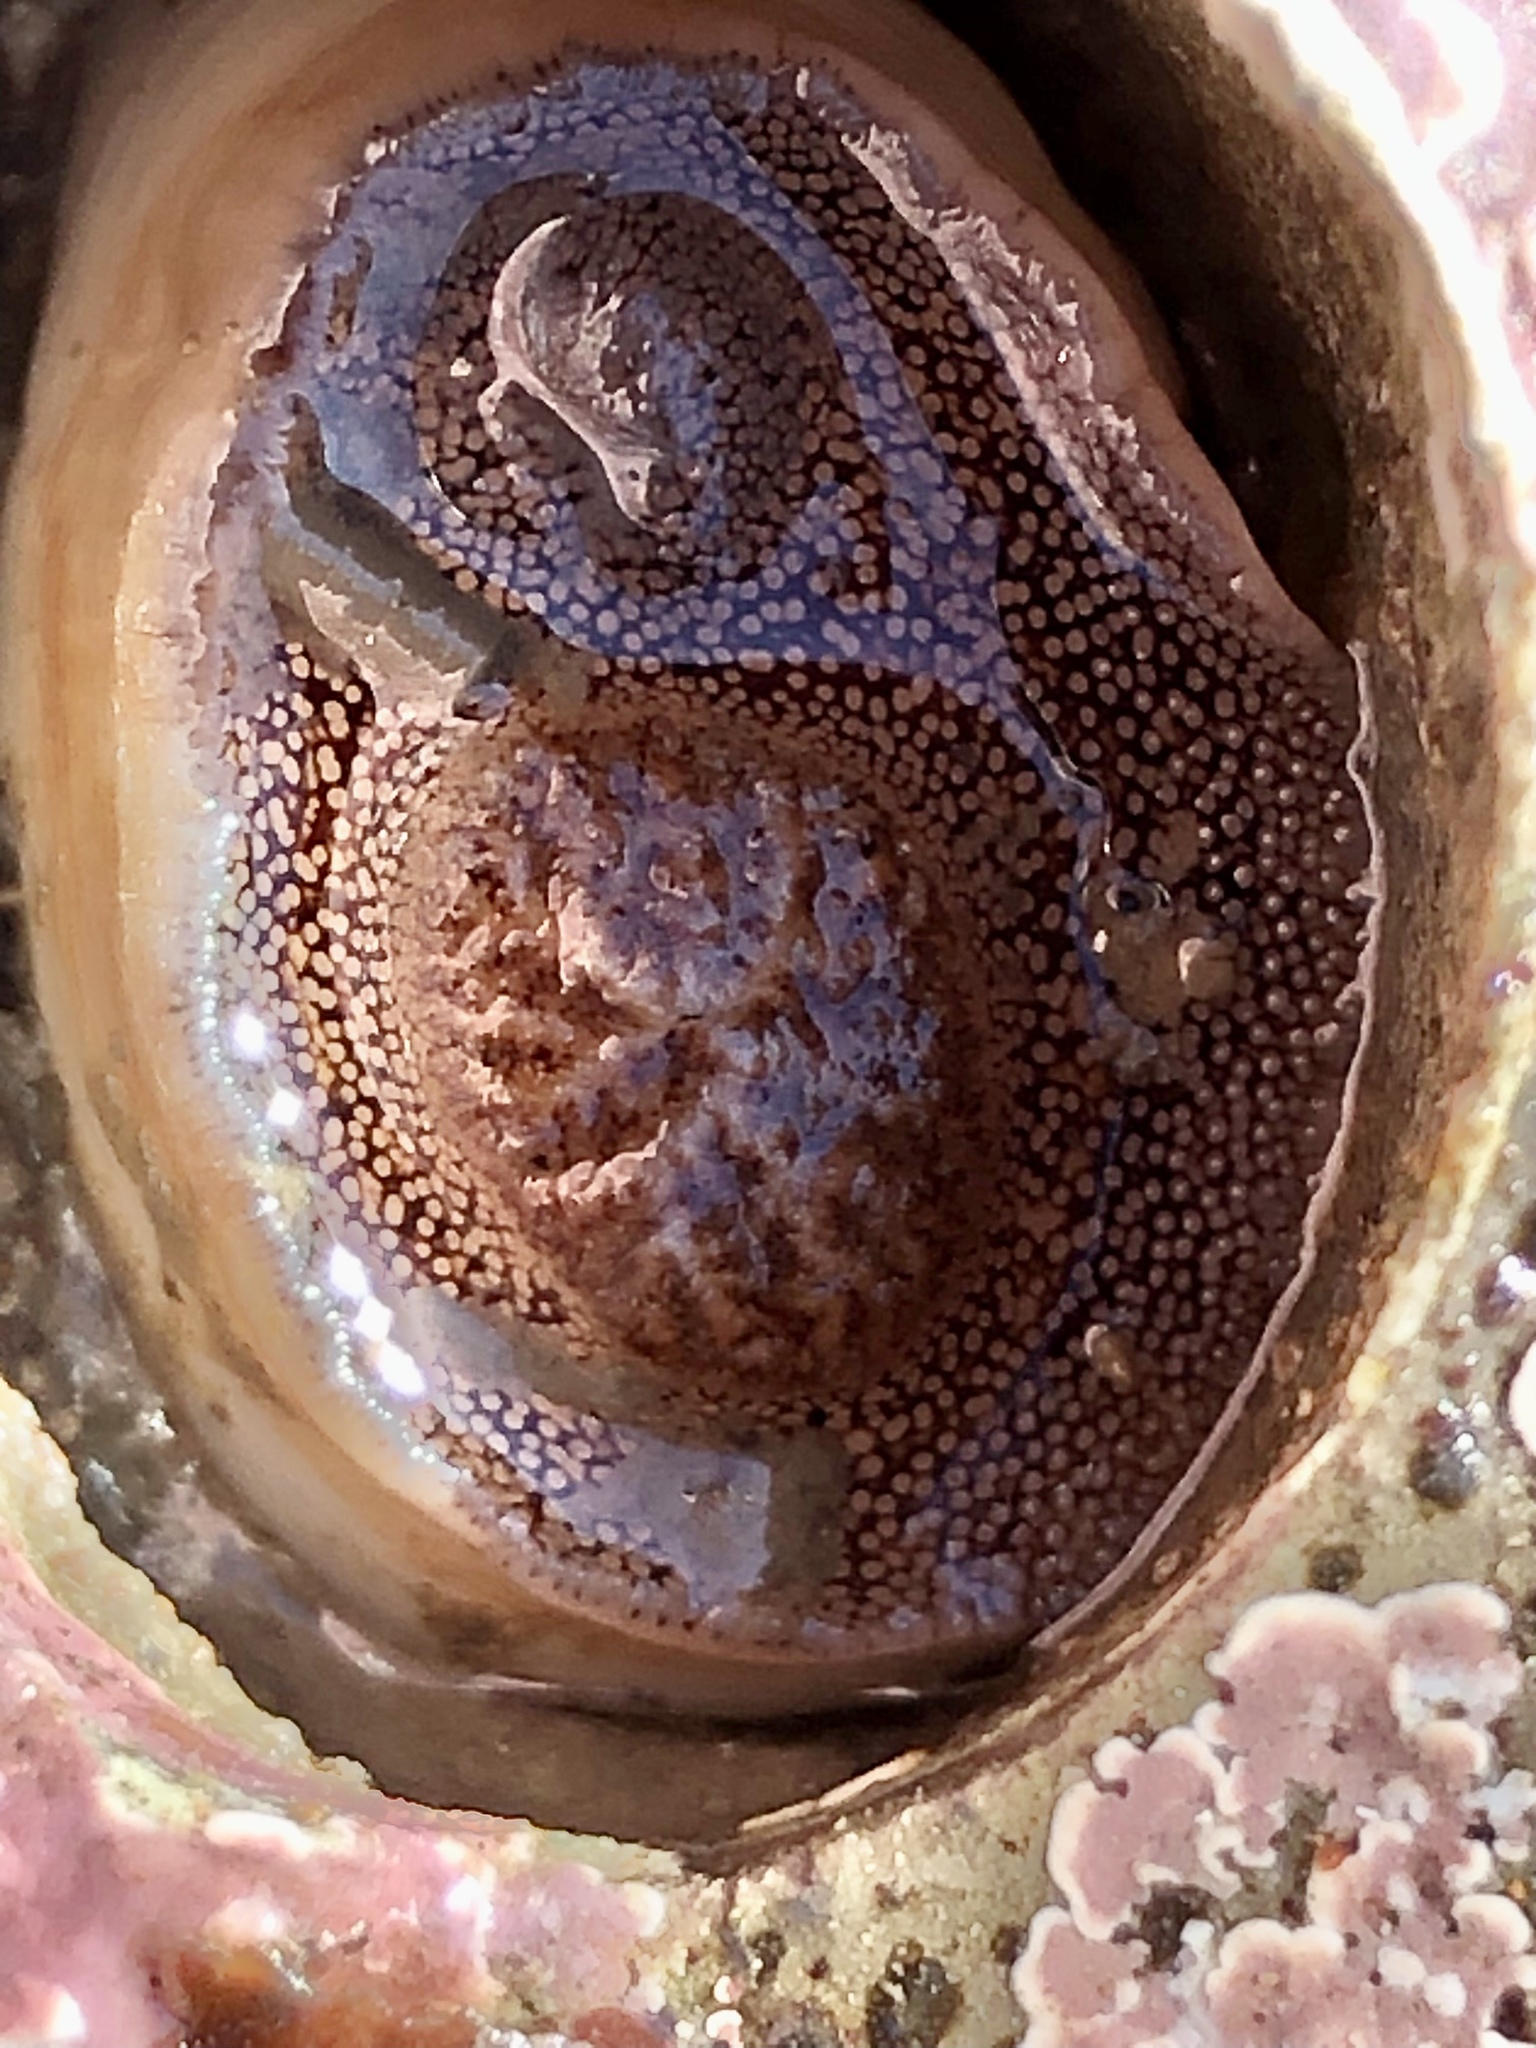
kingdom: Animalia
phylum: Mollusca
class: Bivalvia
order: Myida
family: Pholadidae
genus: Parapholas
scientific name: Parapholas californica
